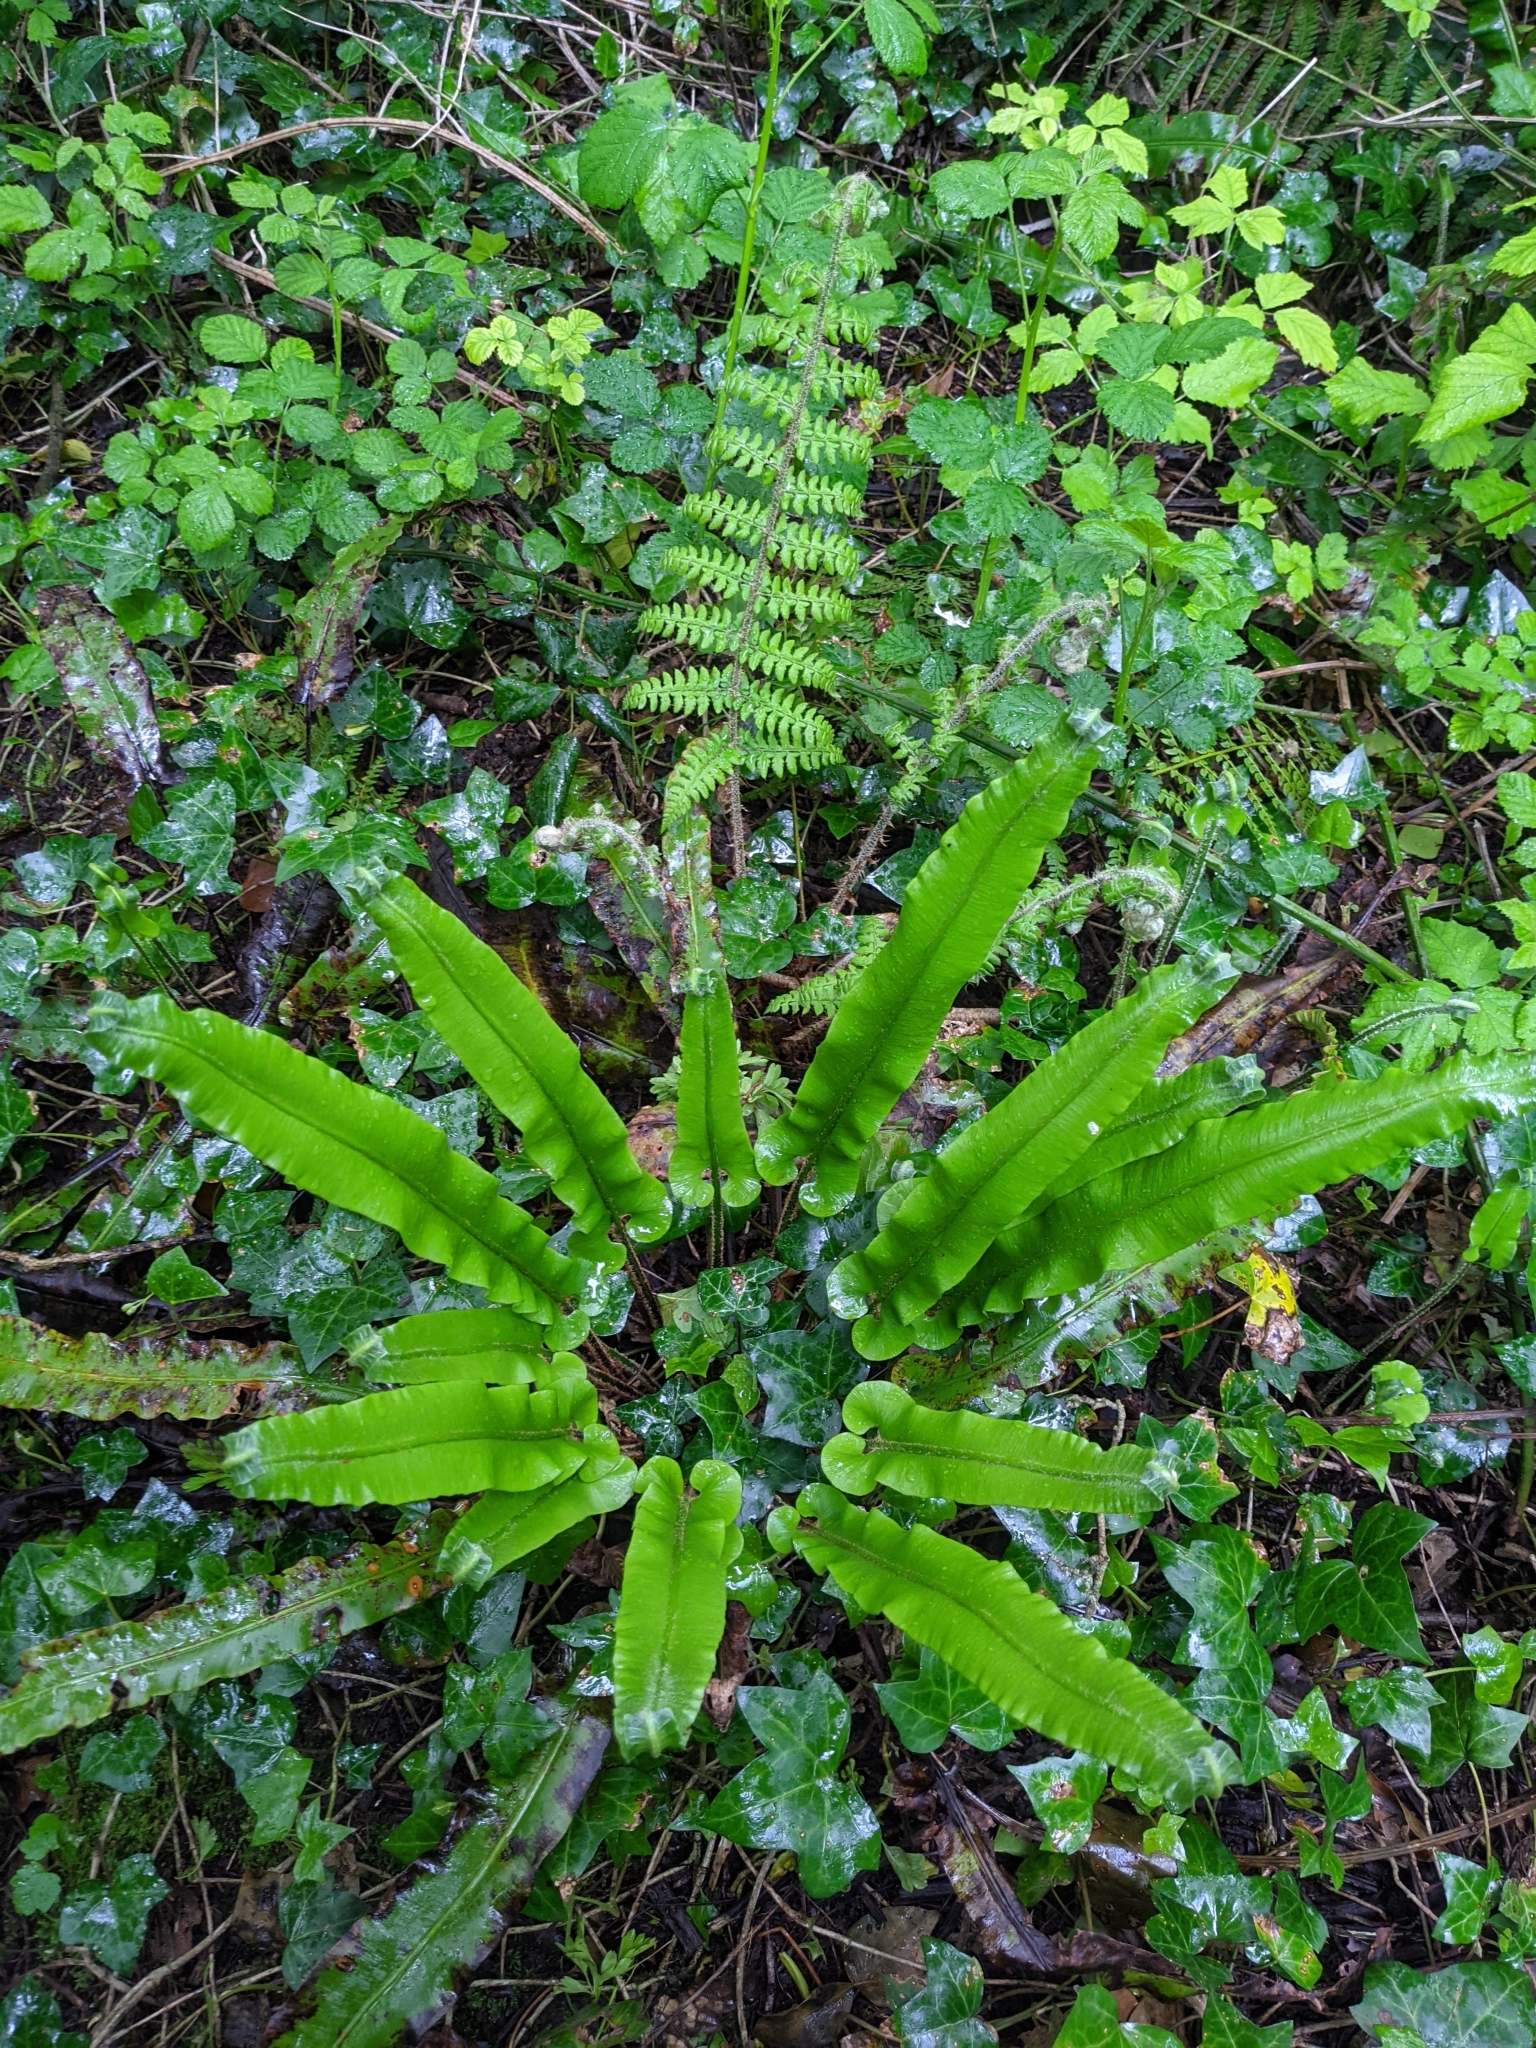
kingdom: Plantae
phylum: Tracheophyta
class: Polypodiopsida
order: Polypodiales
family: Aspleniaceae
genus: Asplenium
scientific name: Asplenium scolopendrium
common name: Hart's-tongue fern
